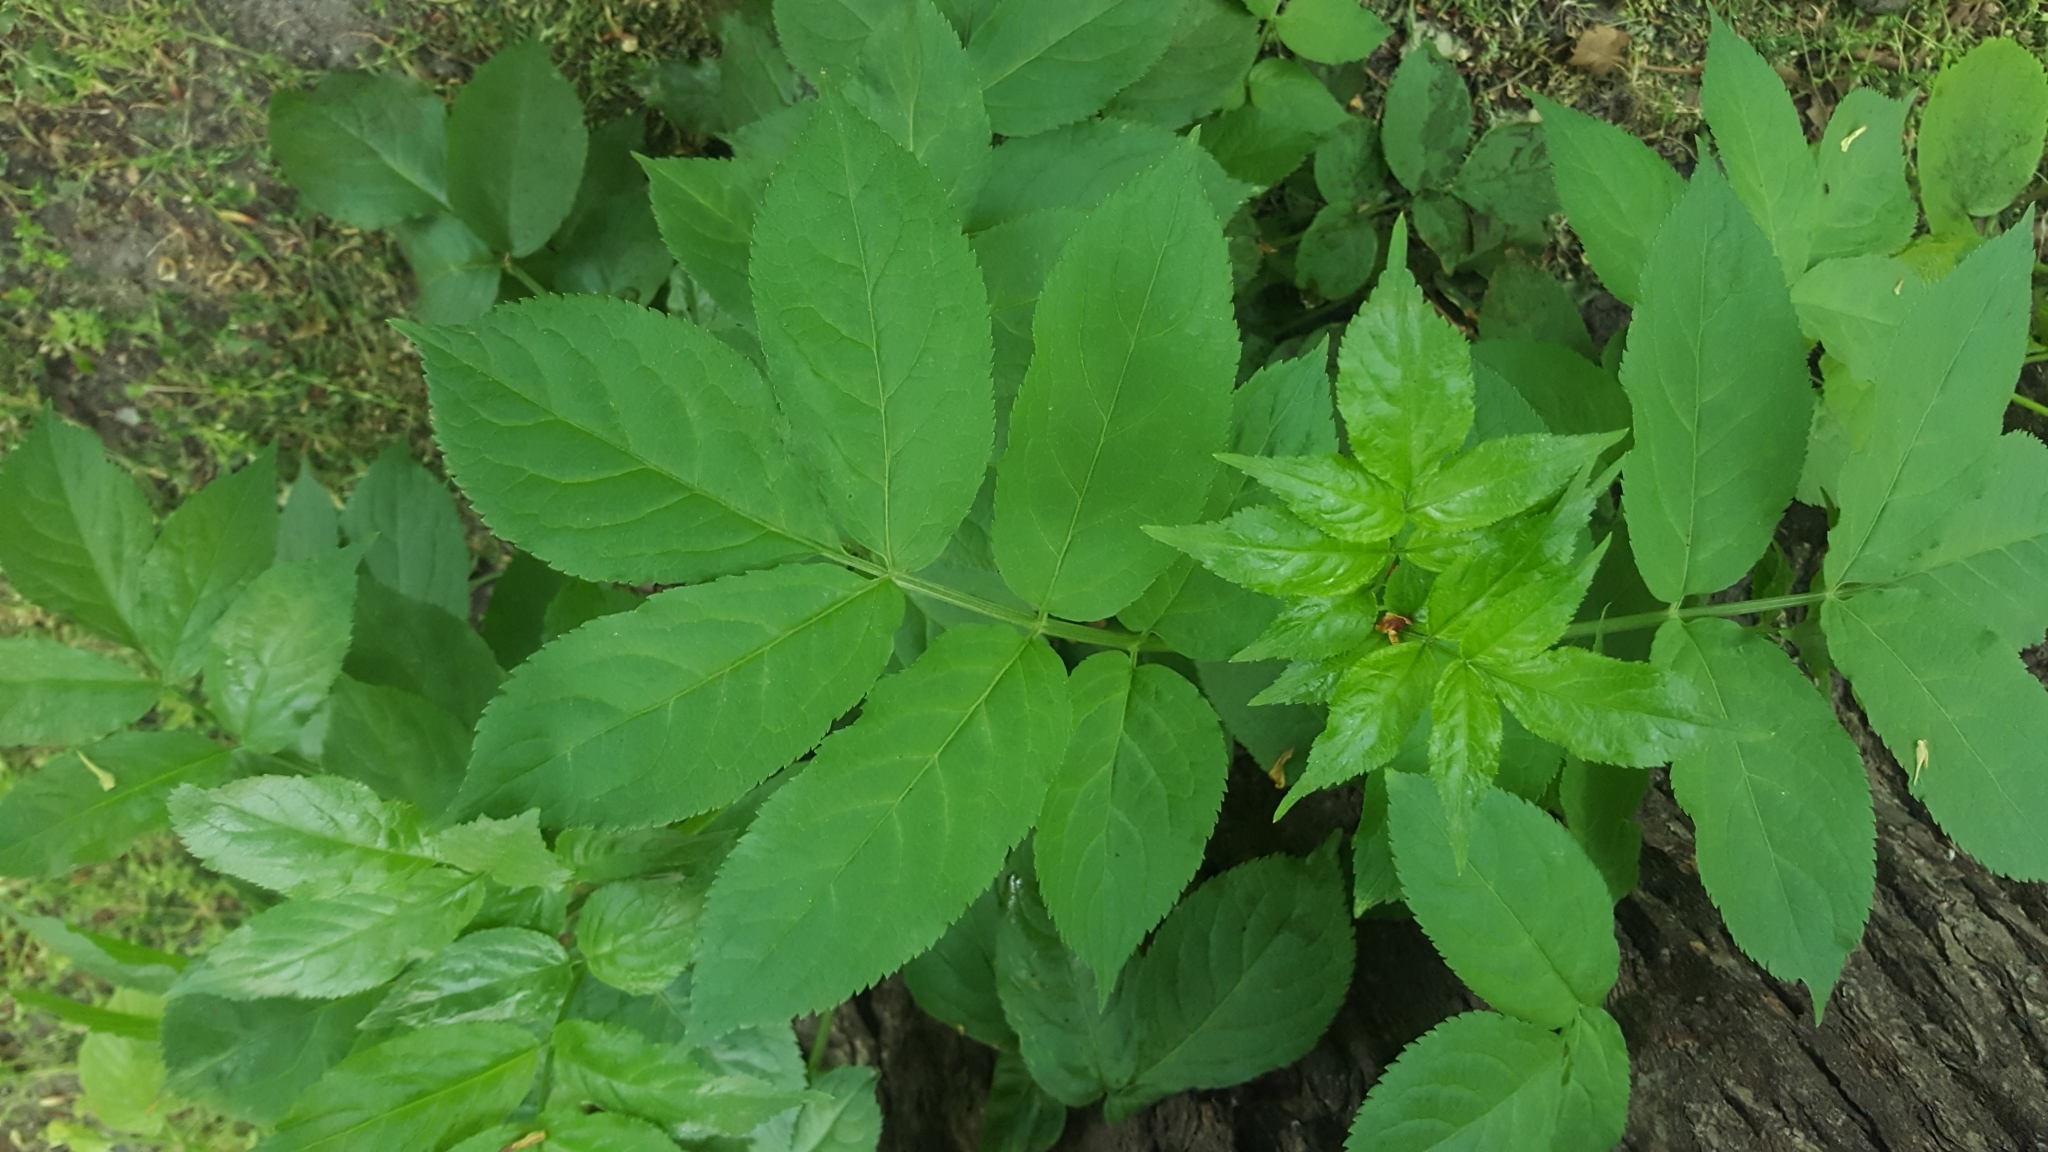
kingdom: Plantae
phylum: Tracheophyta
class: Magnoliopsida
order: Dipsacales
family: Viburnaceae
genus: Sambucus
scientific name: Sambucus nigra
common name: Elder
